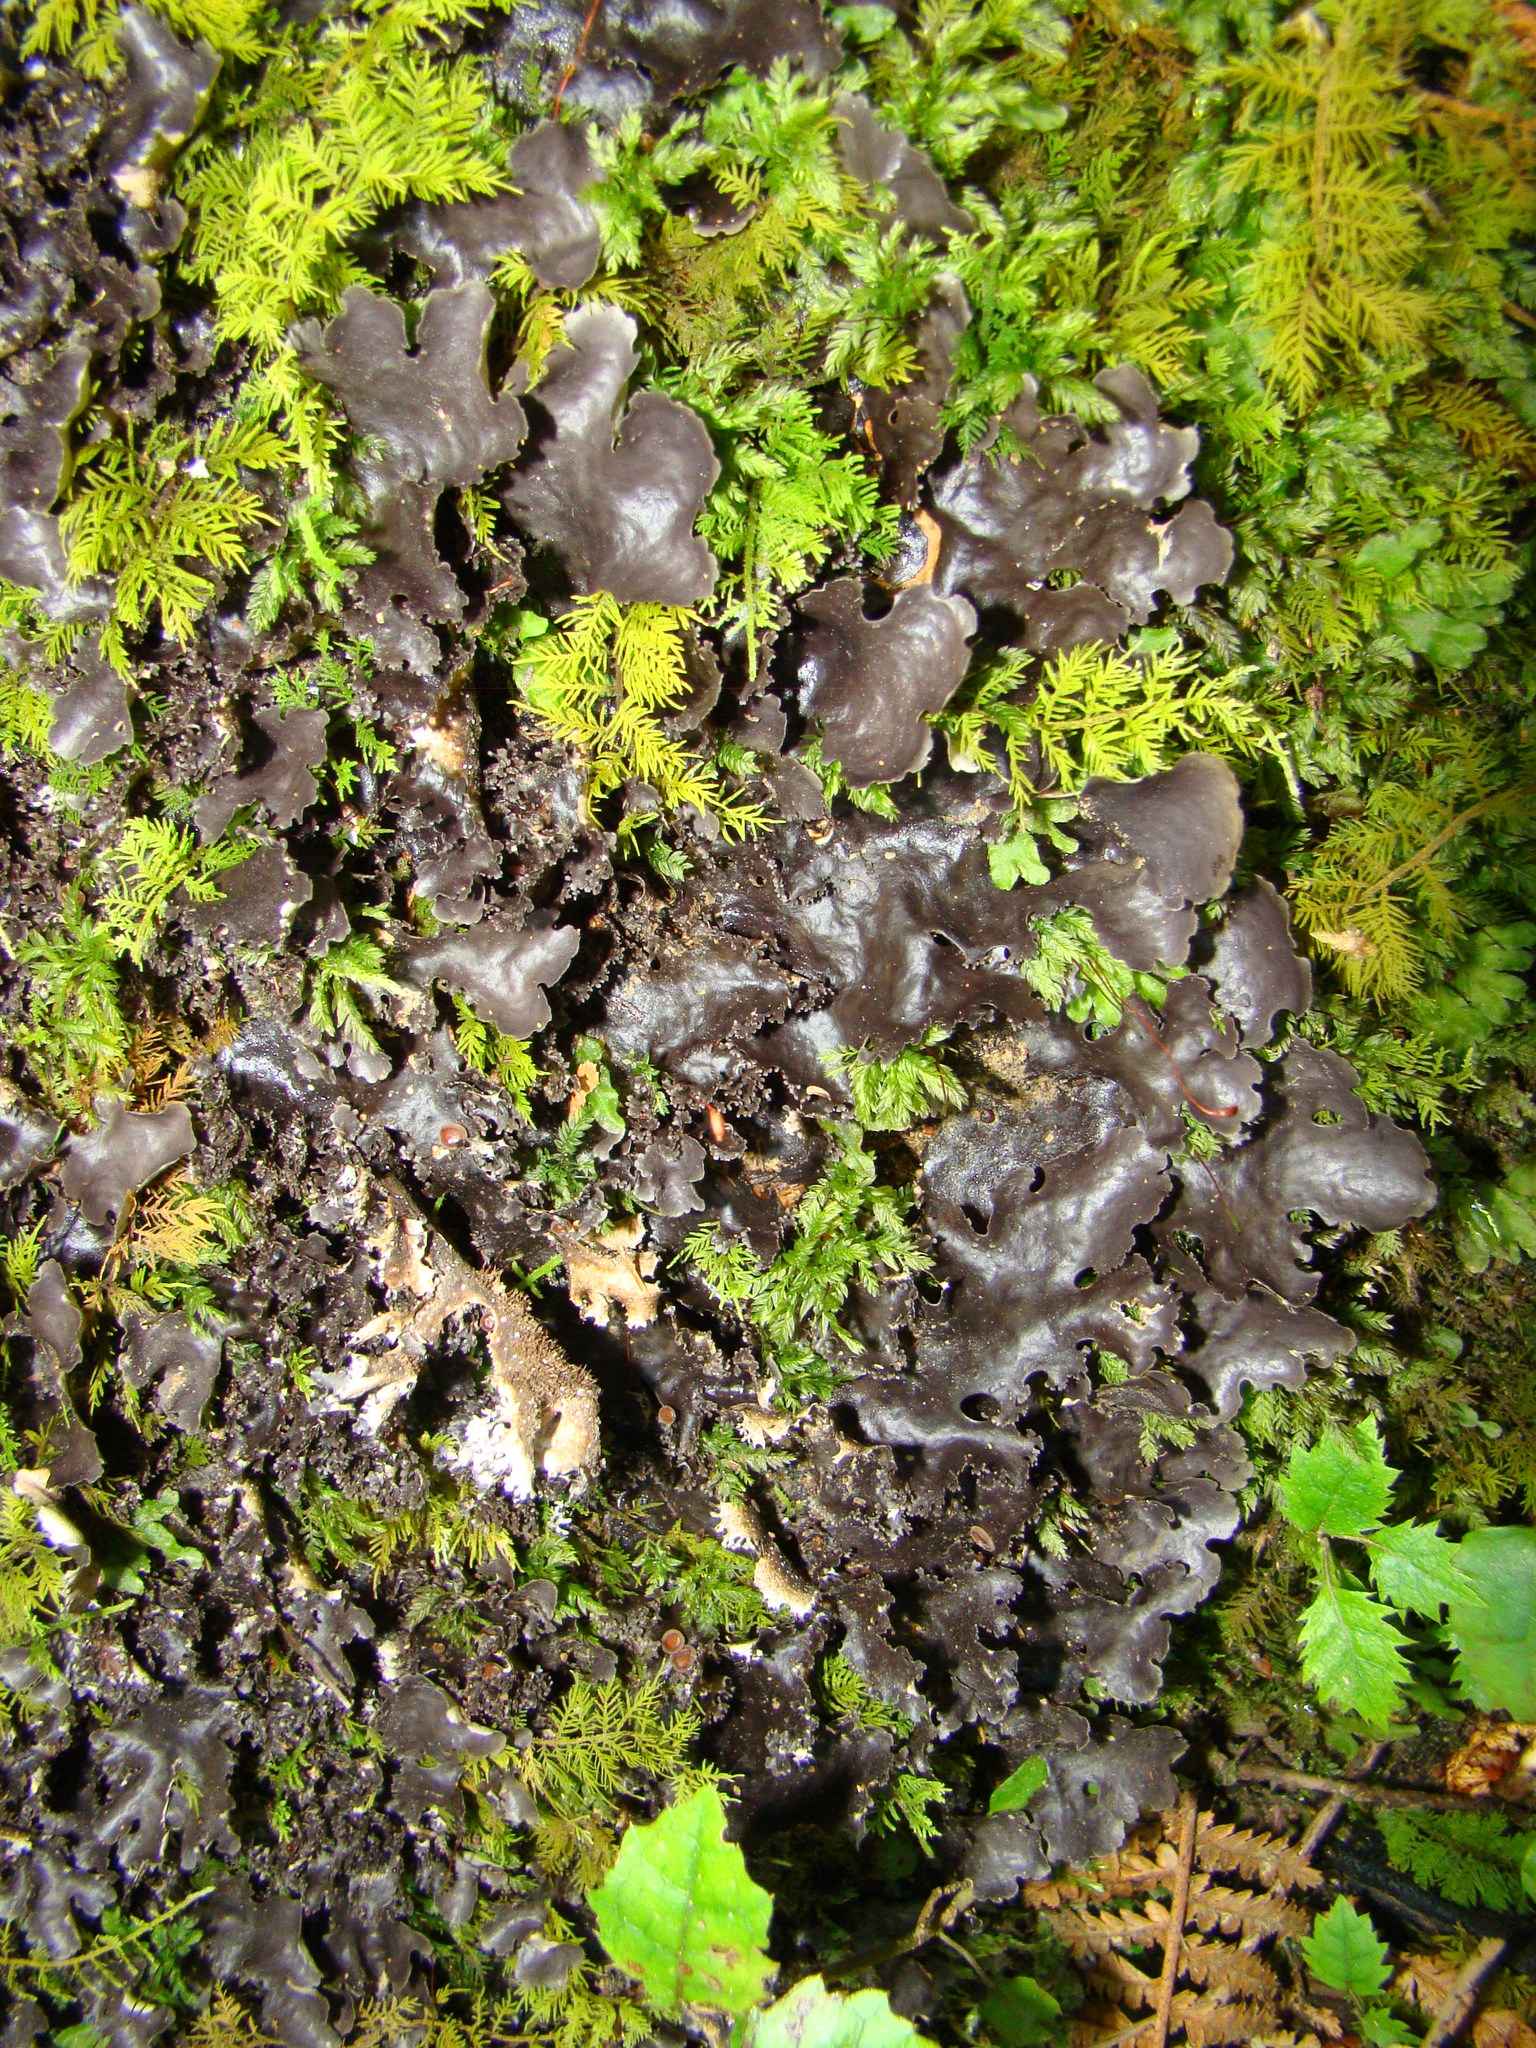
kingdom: Fungi
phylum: Ascomycota
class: Lecanoromycetes
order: Peltigerales
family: Lobariaceae
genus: Pseudocyphellaria
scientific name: Pseudocyphellaria dissimilis
